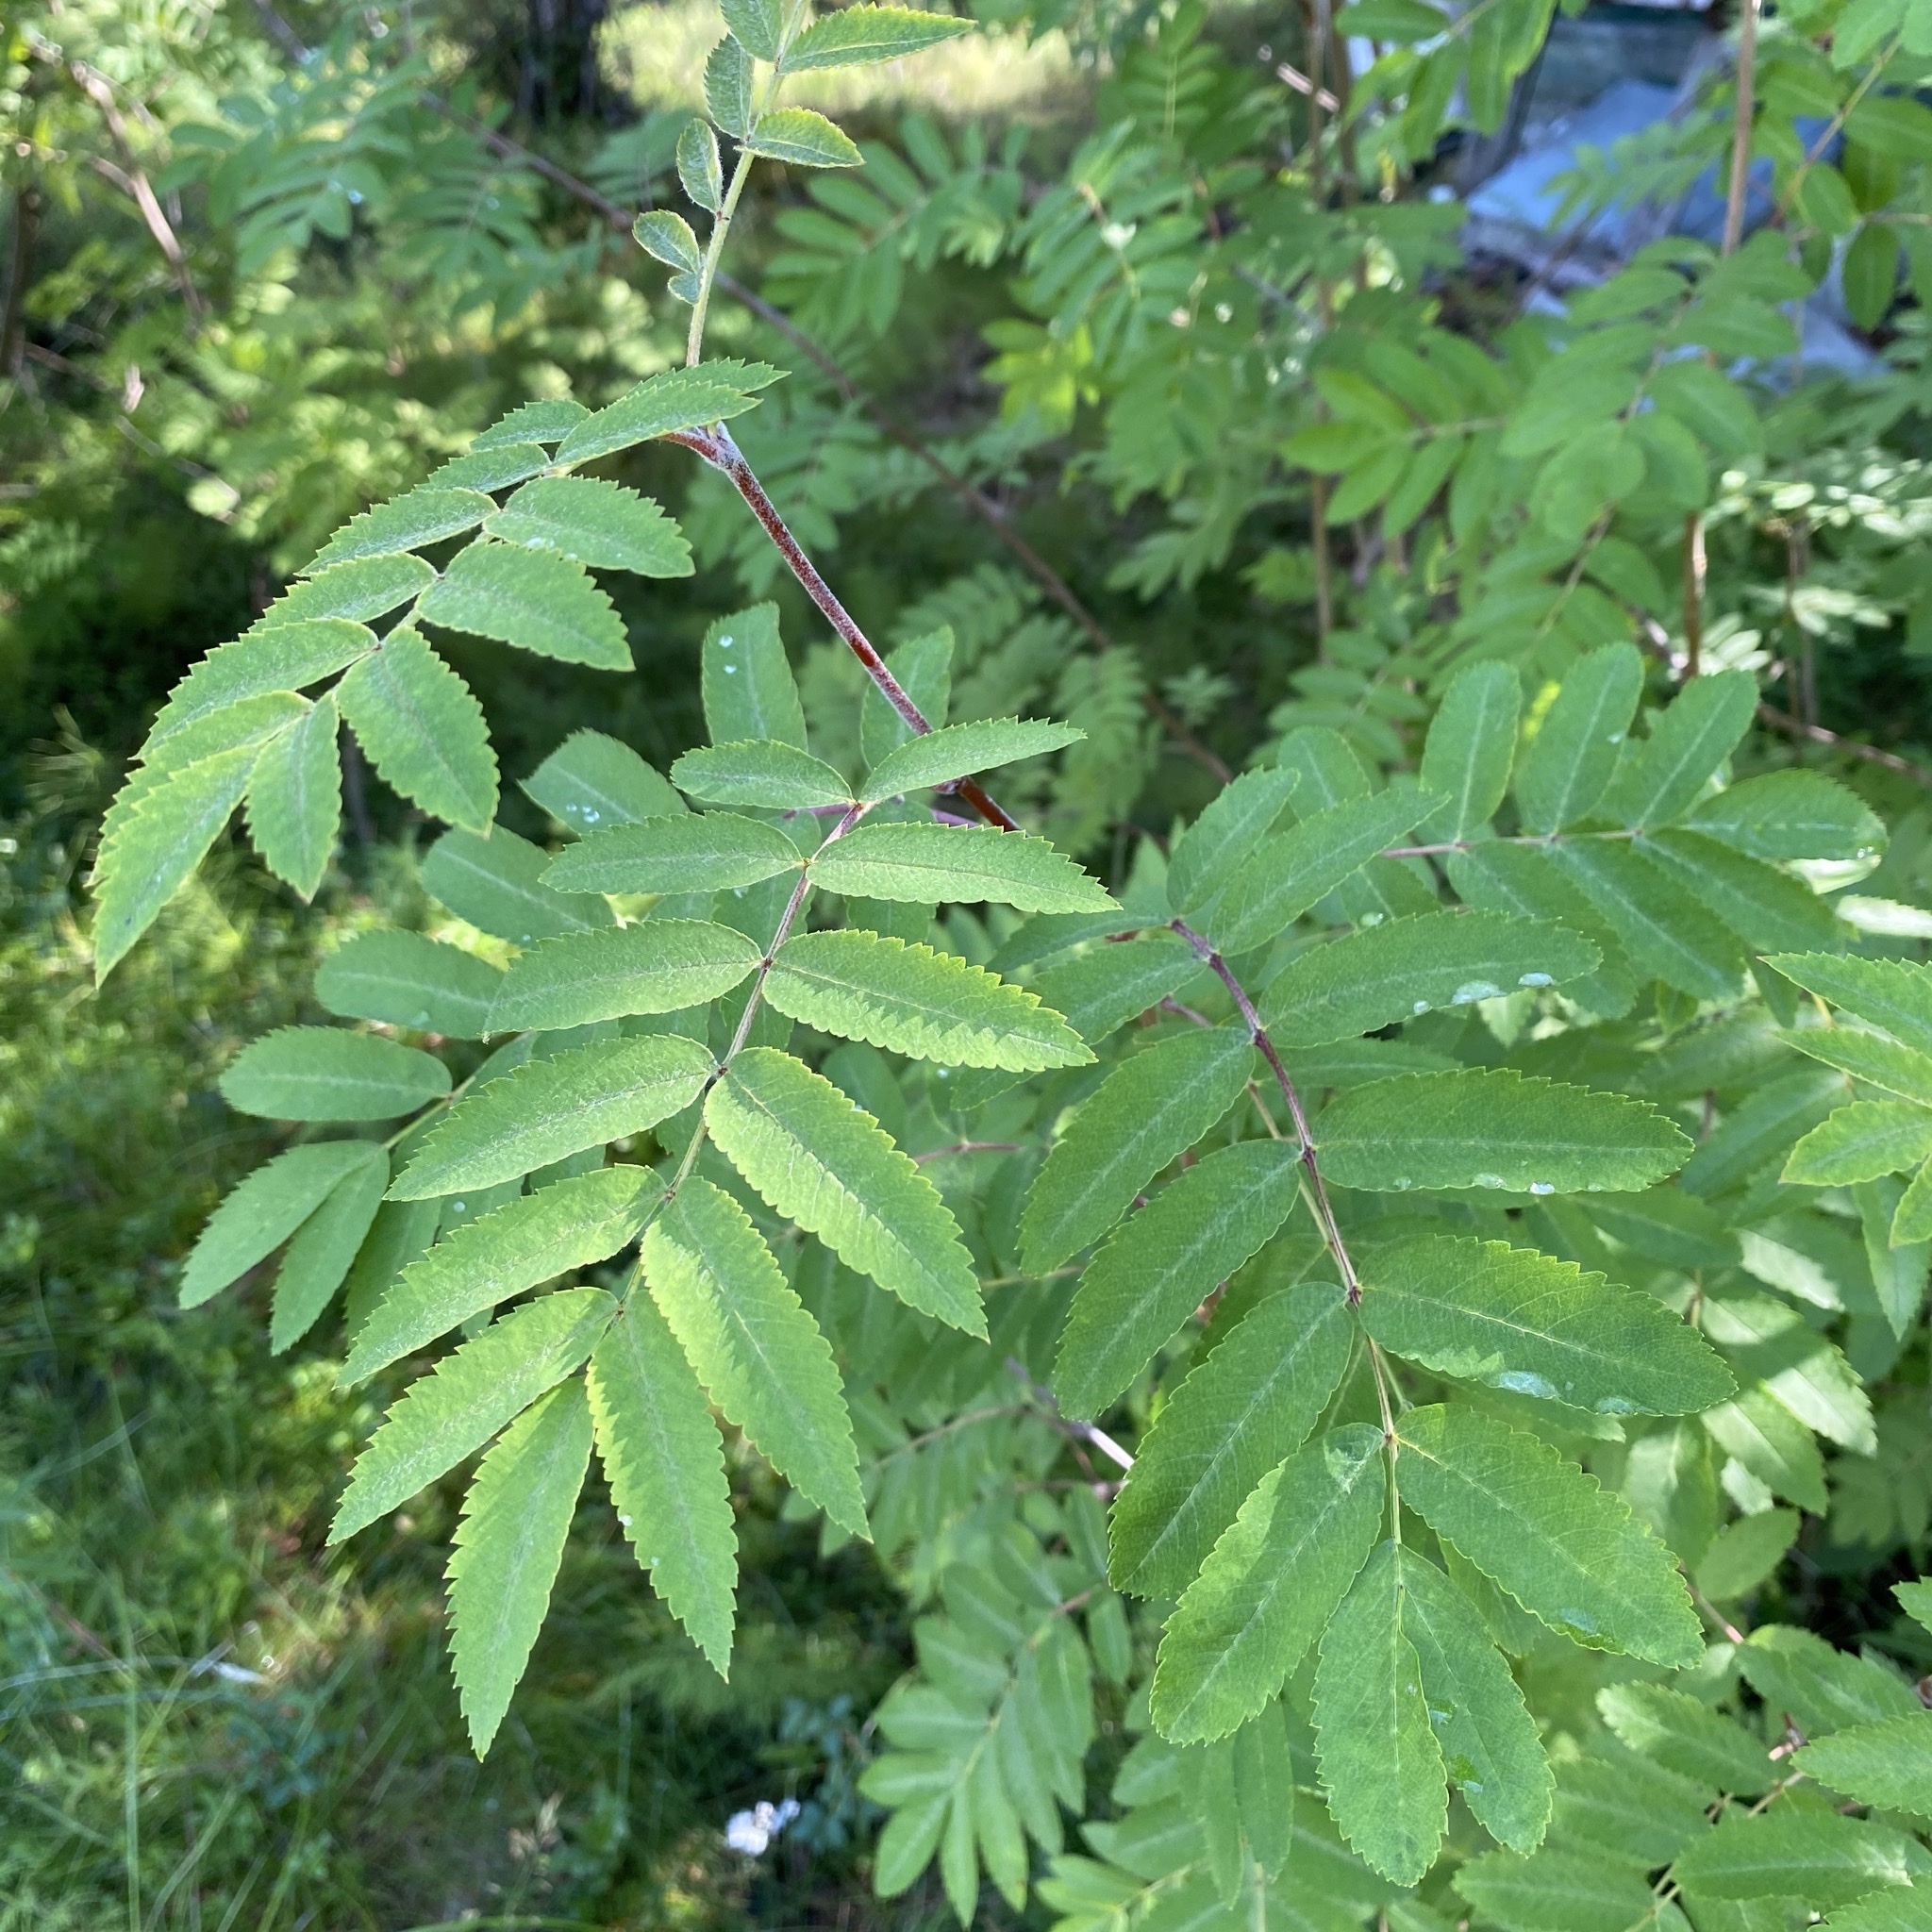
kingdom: Plantae
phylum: Tracheophyta
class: Magnoliopsida
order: Rosales
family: Rosaceae
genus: Sorbus
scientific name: Sorbus aucuparia
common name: Rowan
